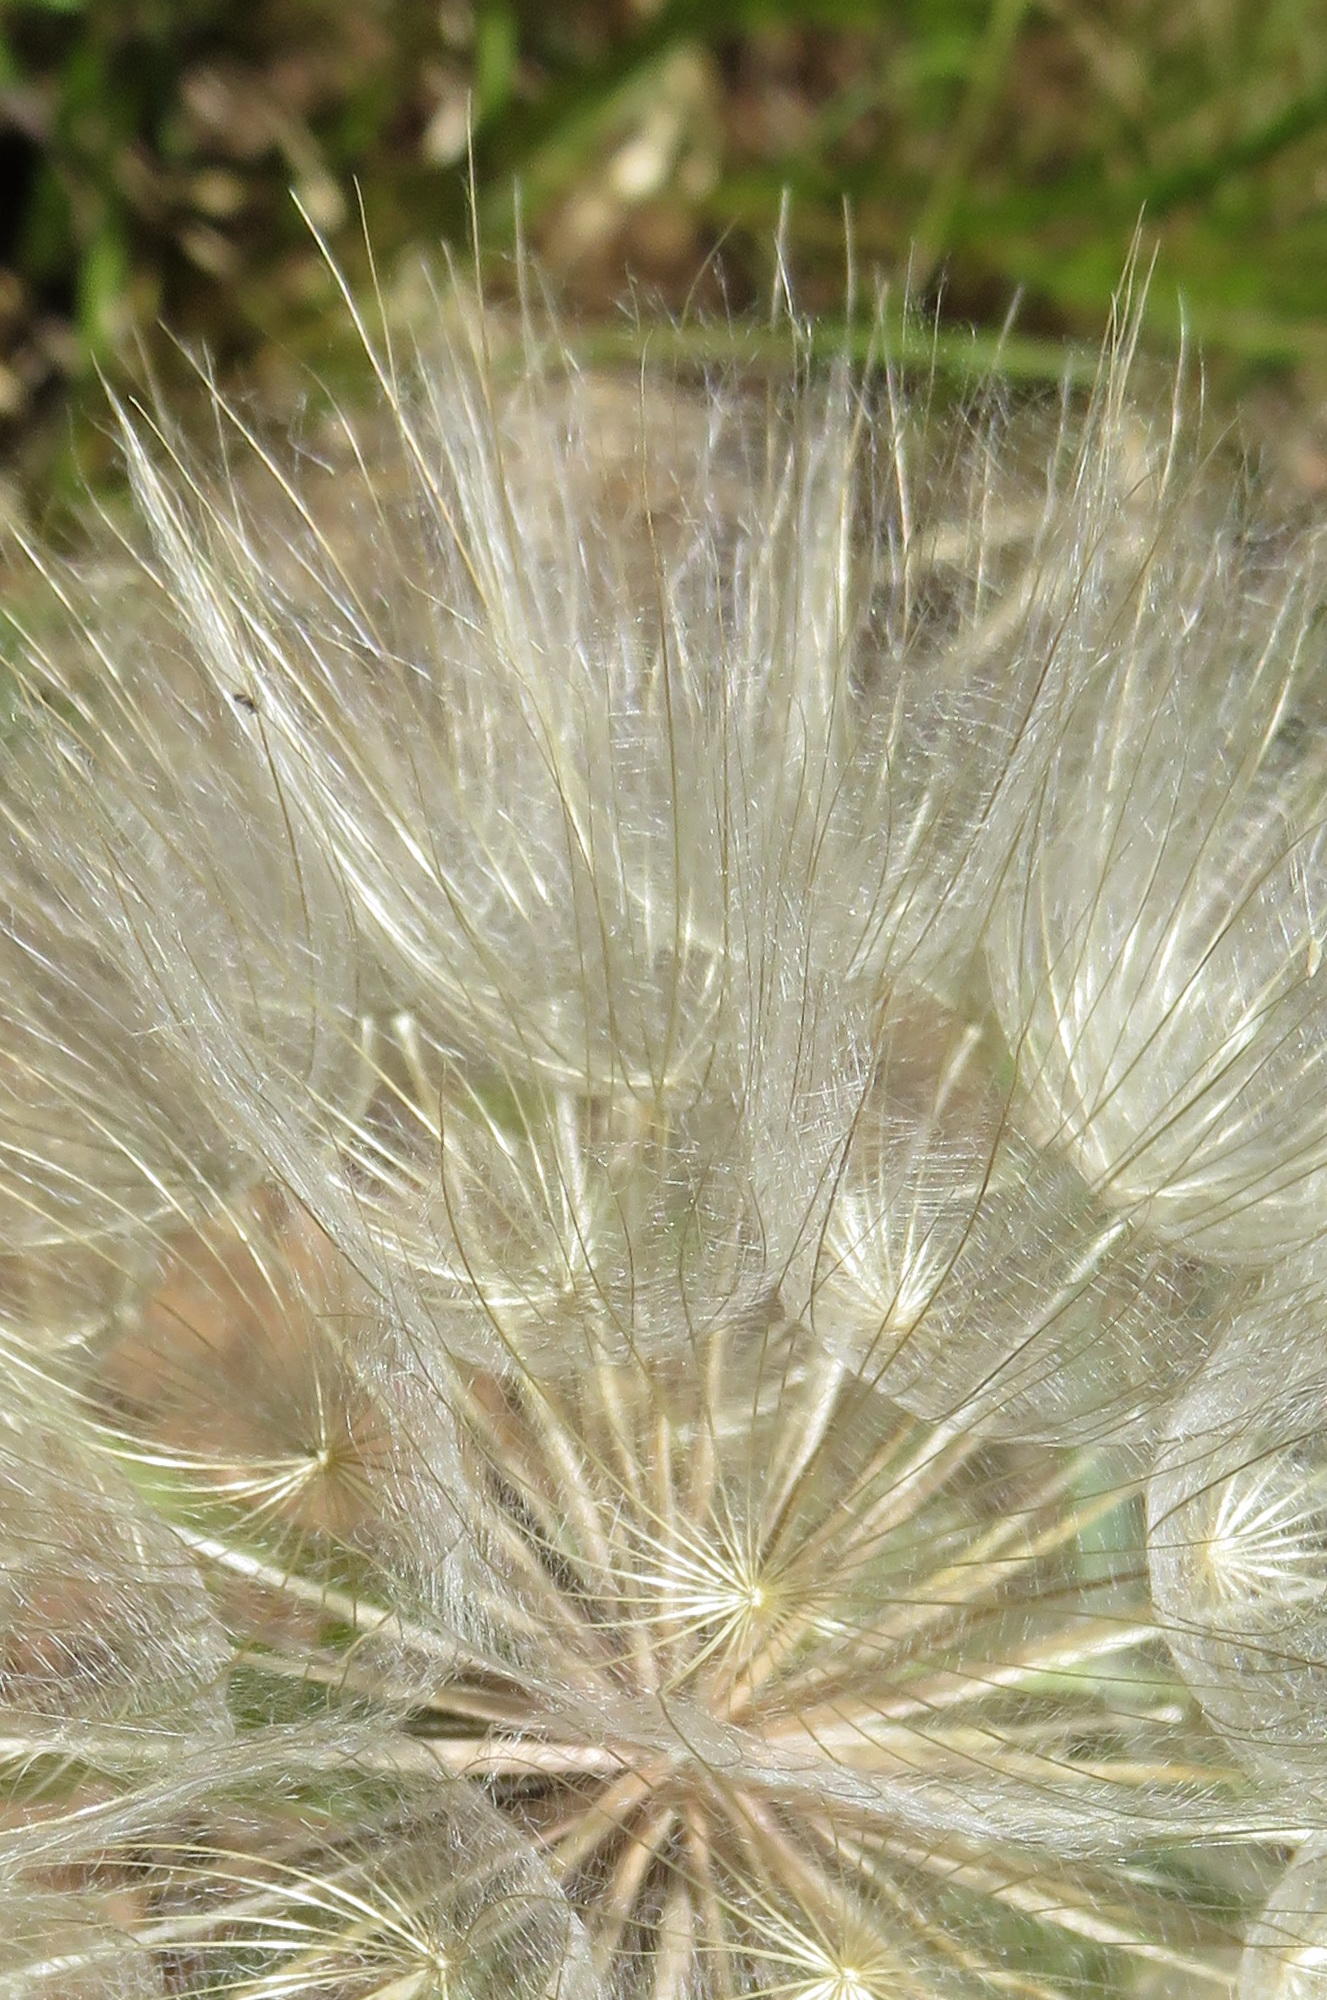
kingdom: Plantae
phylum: Tracheophyta
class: Magnoliopsida
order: Asterales
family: Asteraceae
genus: Tragopogon
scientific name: Tragopogon dubius
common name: Yellow salsify
